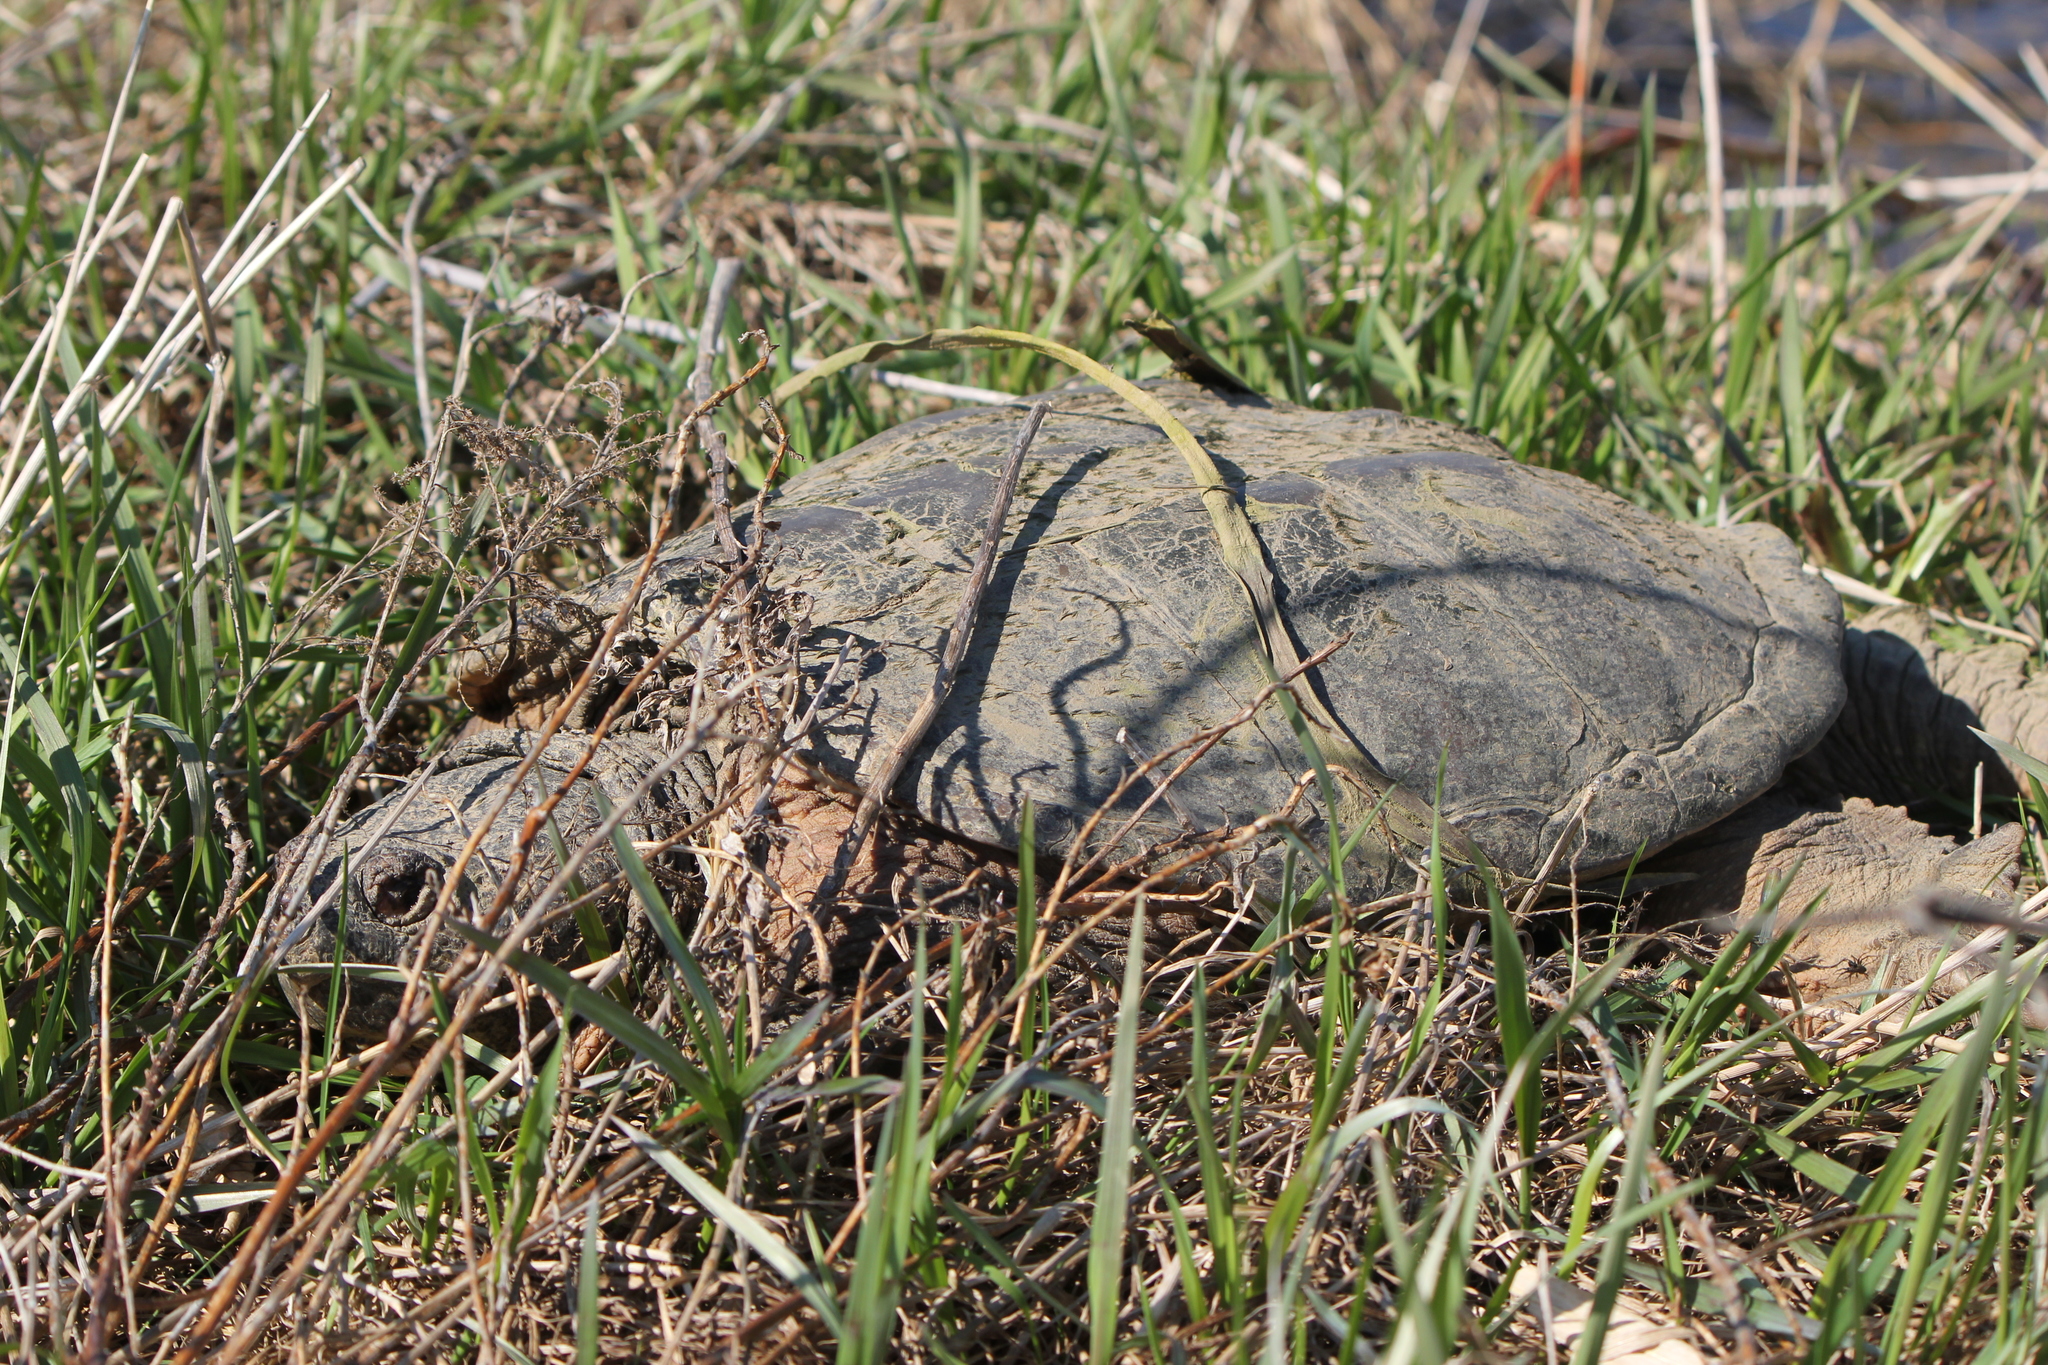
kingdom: Animalia
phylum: Chordata
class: Testudines
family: Chelydridae
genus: Chelydra
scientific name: Chelydra serpentina
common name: Common snapping turtle
